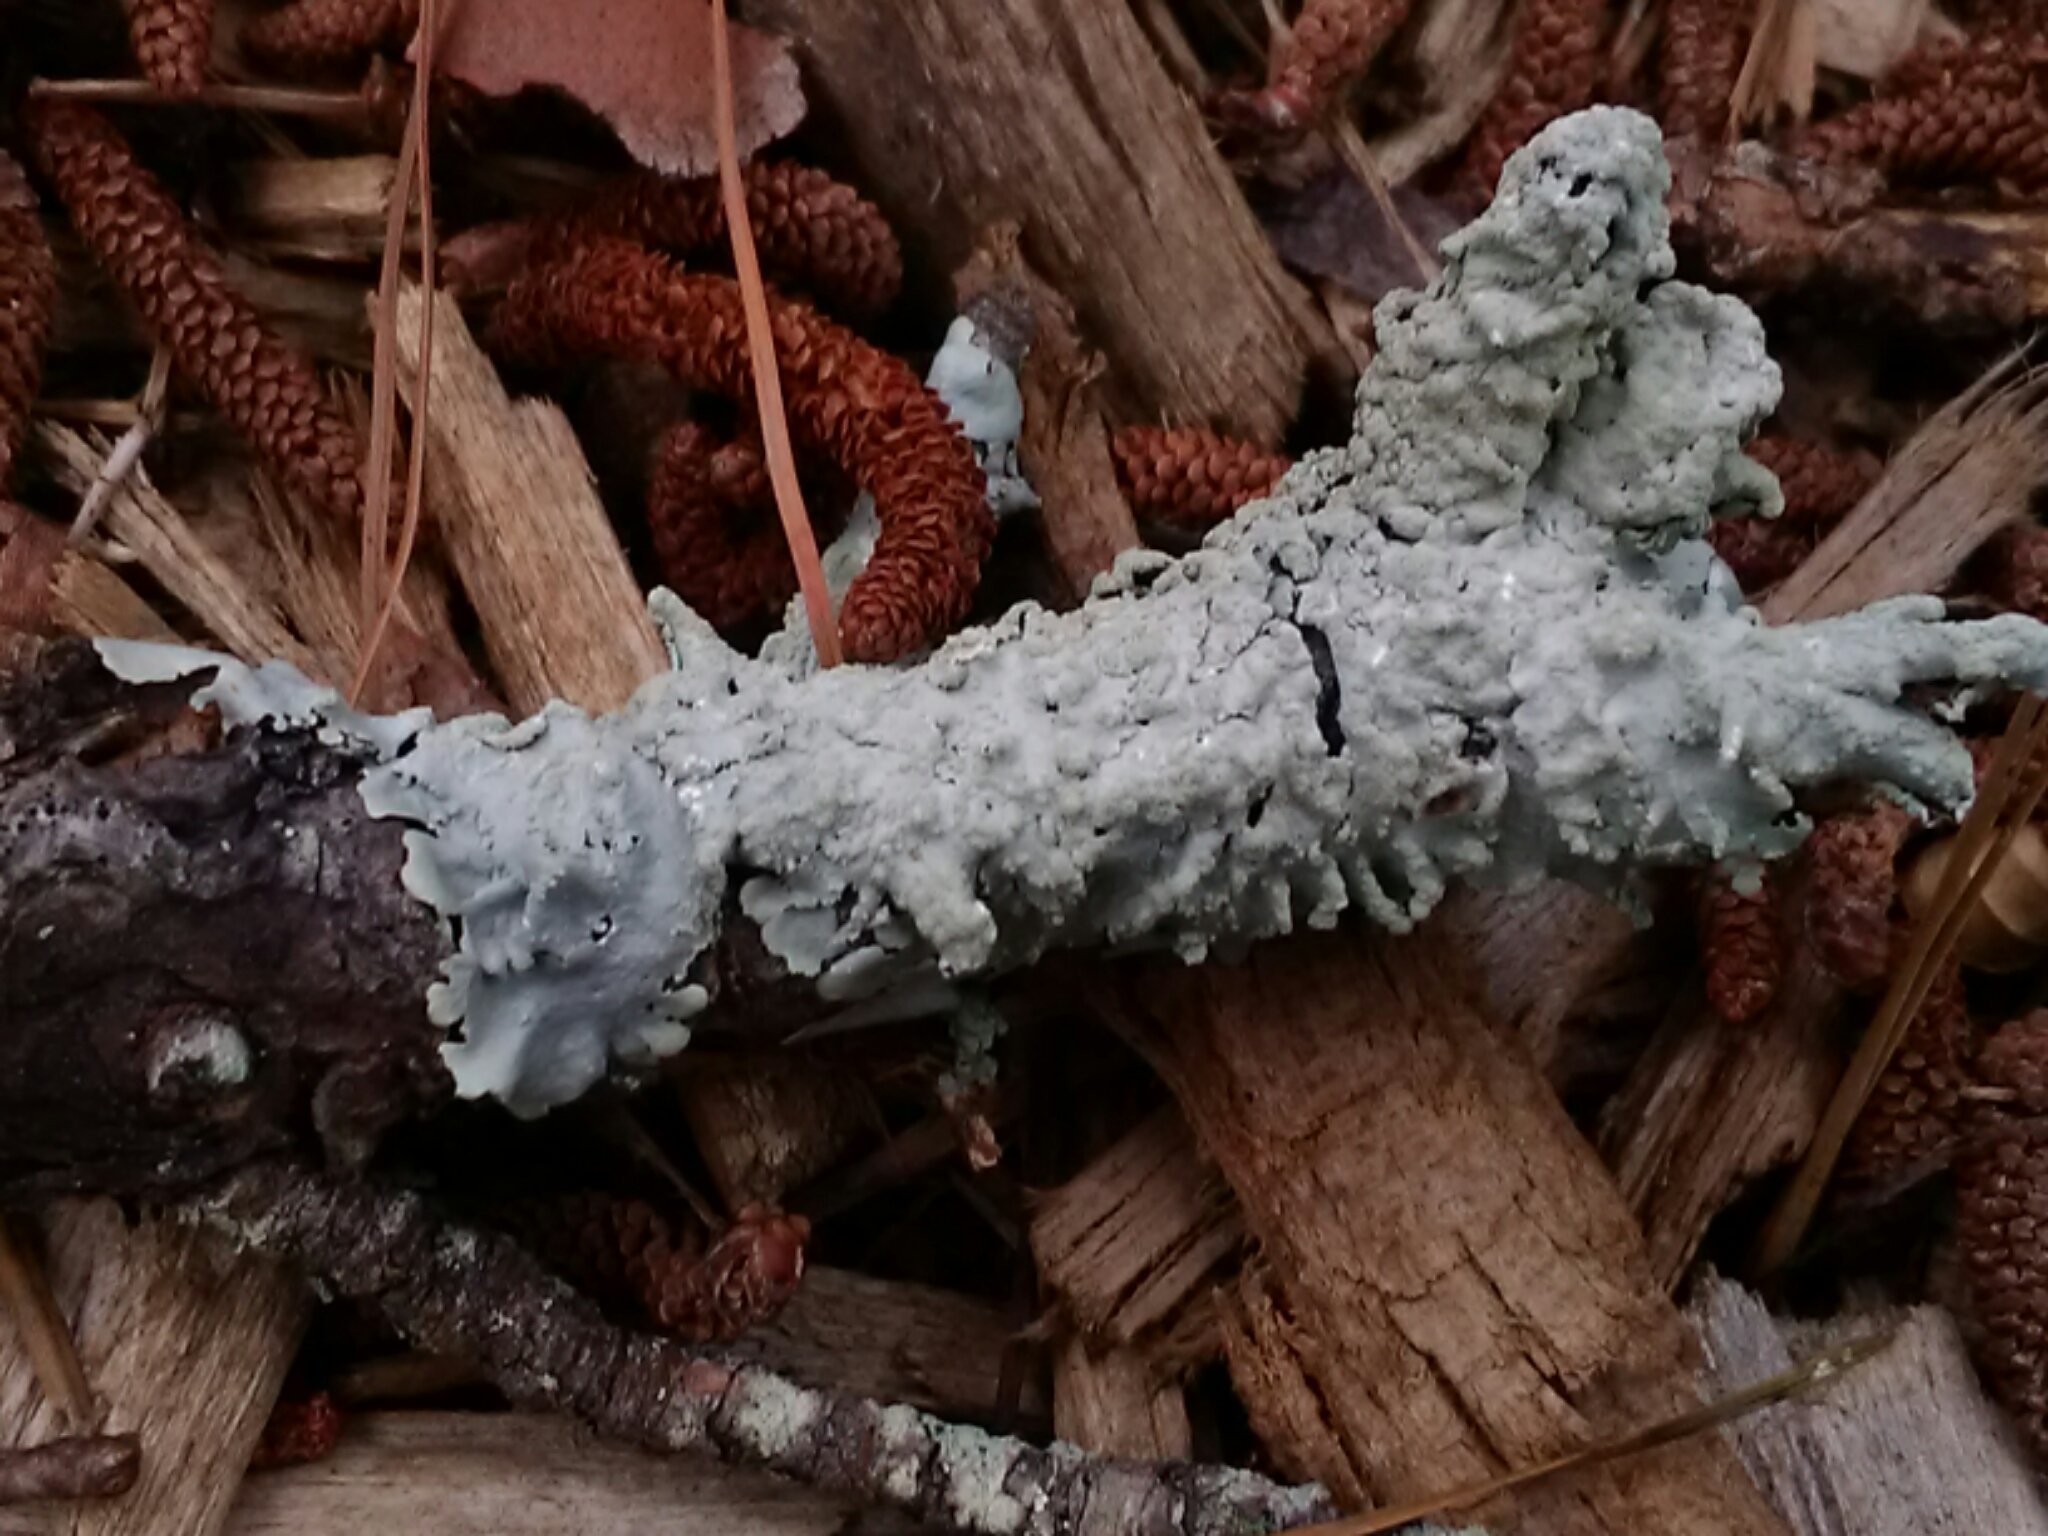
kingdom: Fungi
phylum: Ascomycota
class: Lecanoromycetes
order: Lecanorales
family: Parmeliaceae
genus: Canoparmelia
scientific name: Canoparmelia texana
